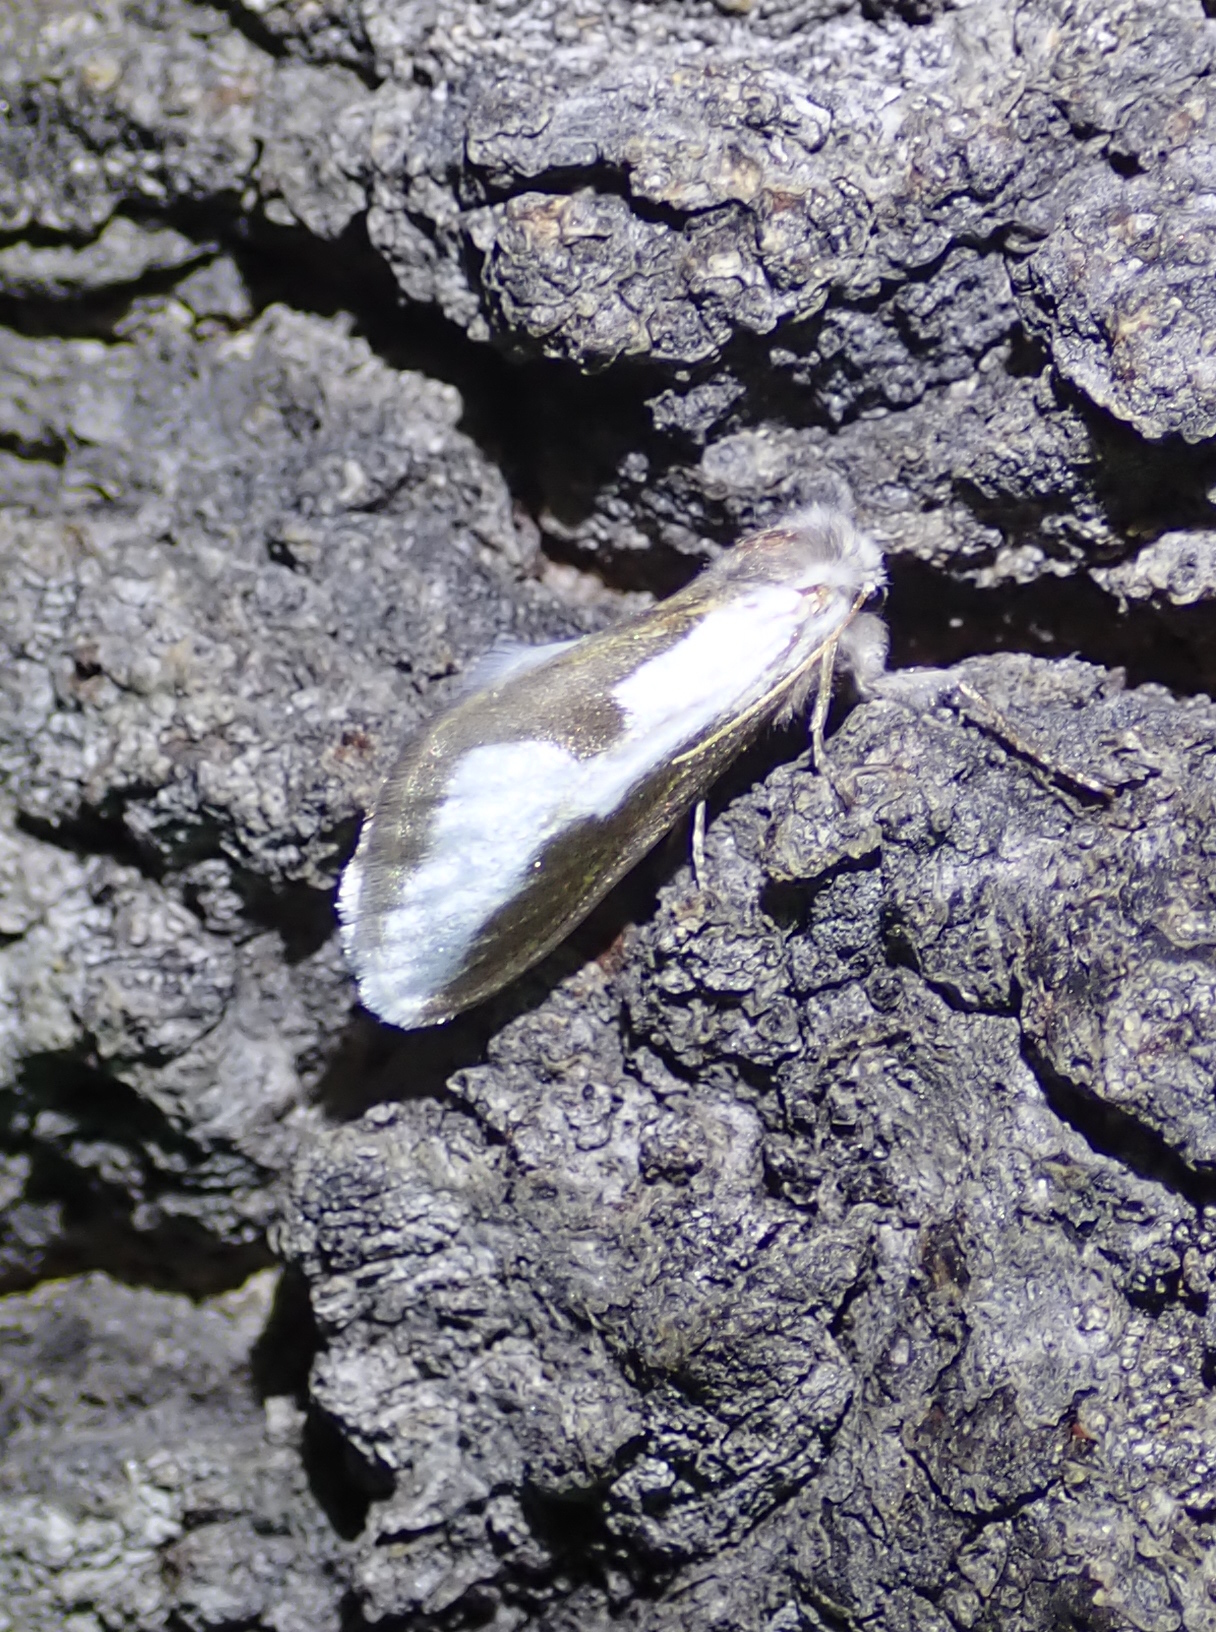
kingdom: Animalia
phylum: Arthropoda
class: Insecta
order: Lepidoptera
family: Megalopygidae
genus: Norape
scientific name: Norape tener
